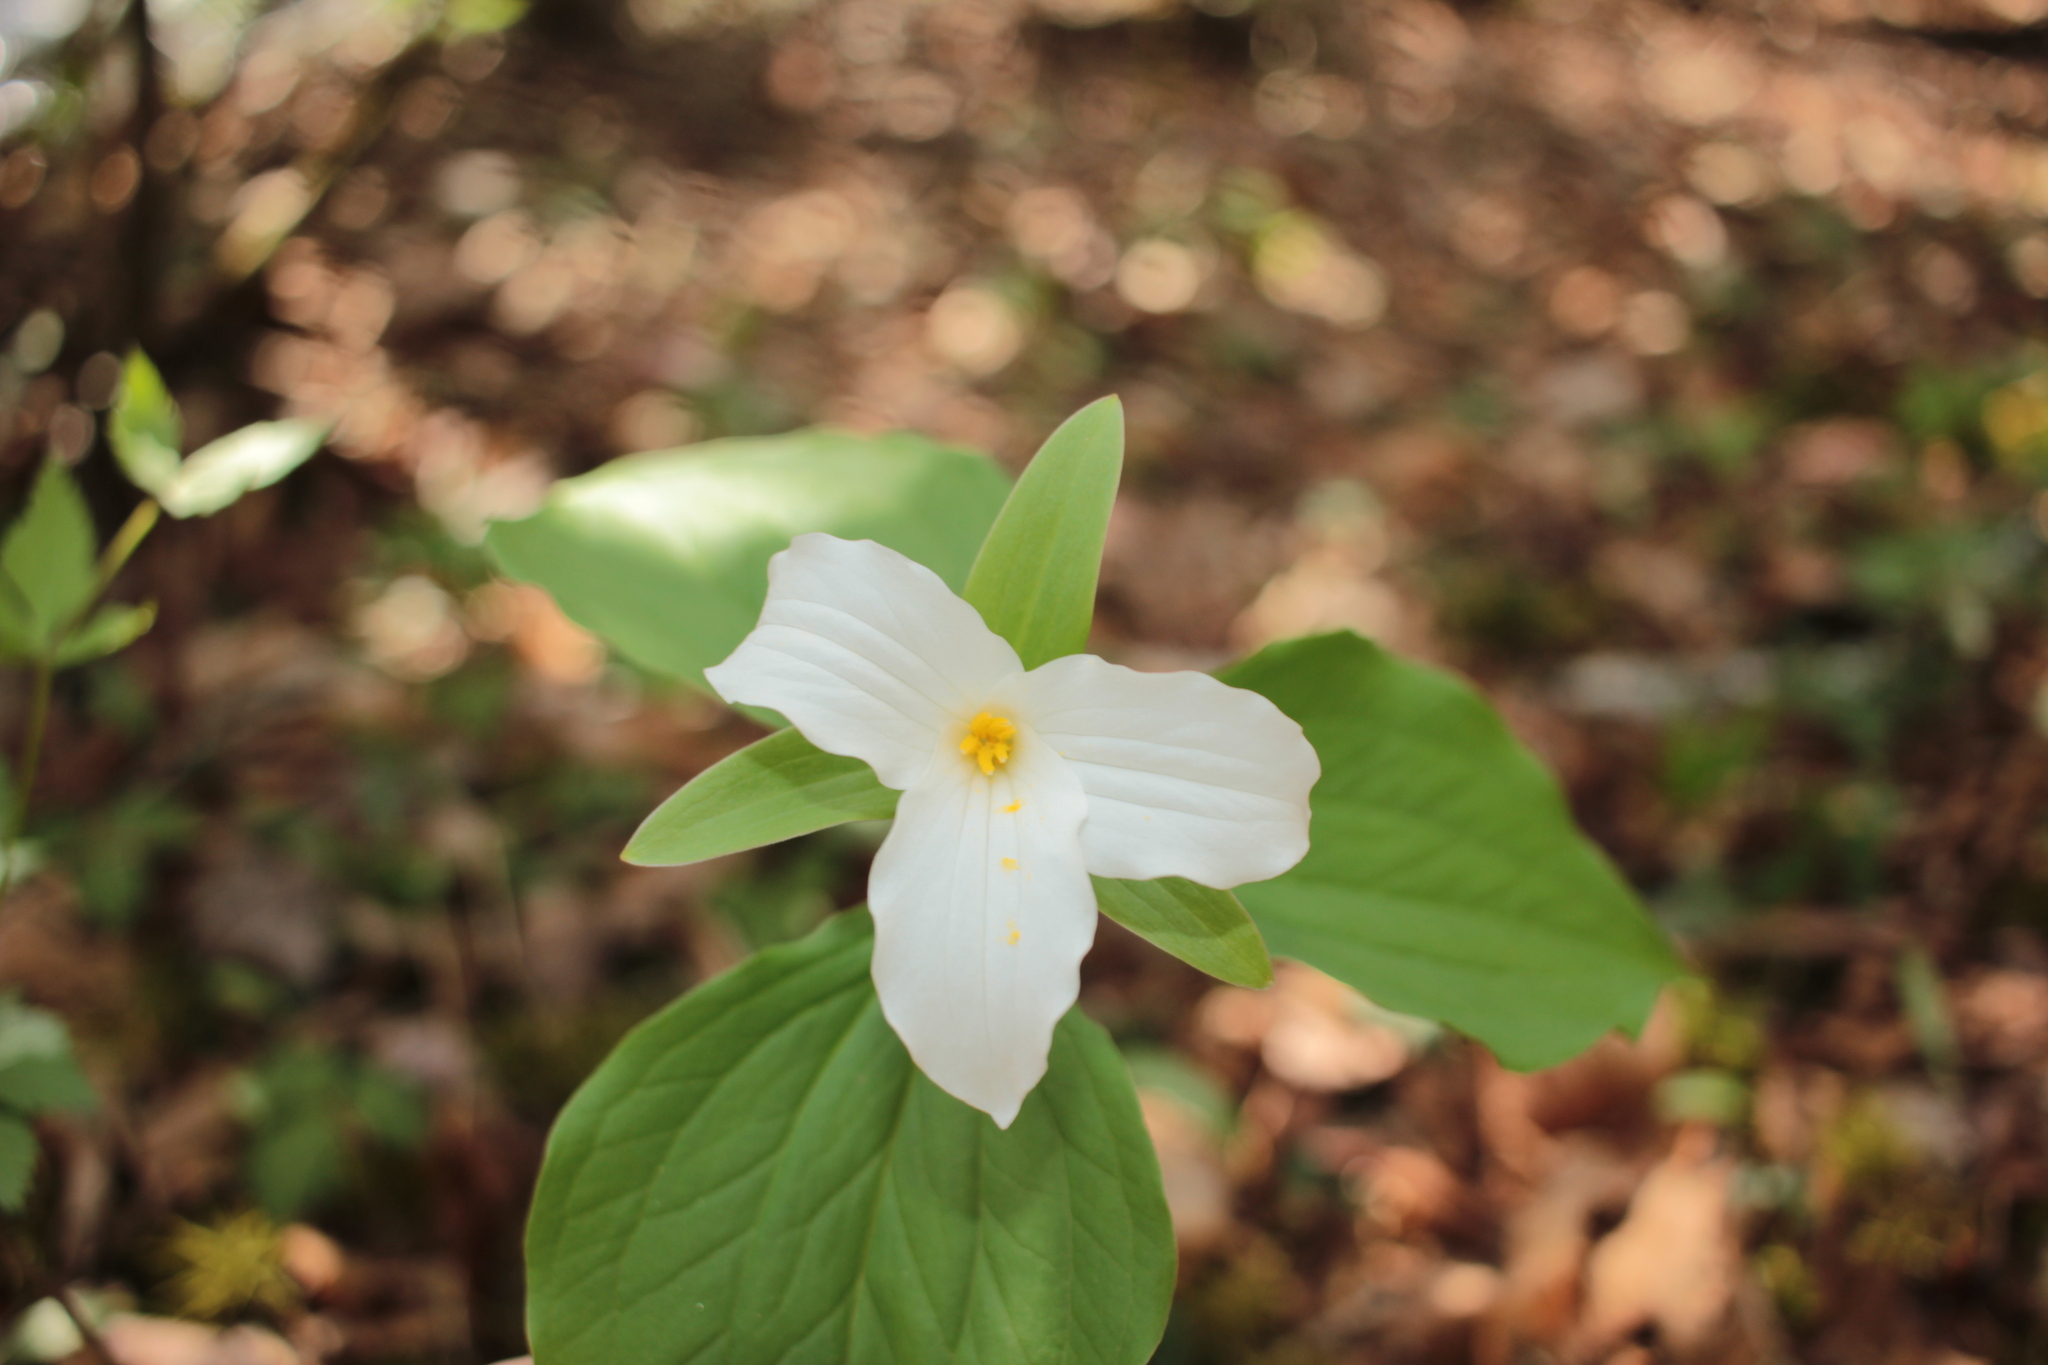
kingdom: Plantae
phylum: Tracheophyta
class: Liliopsida
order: Liliales
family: Melanthiaceae
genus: Trillium
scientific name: Trillium grandiflorum
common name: Great white trillium
